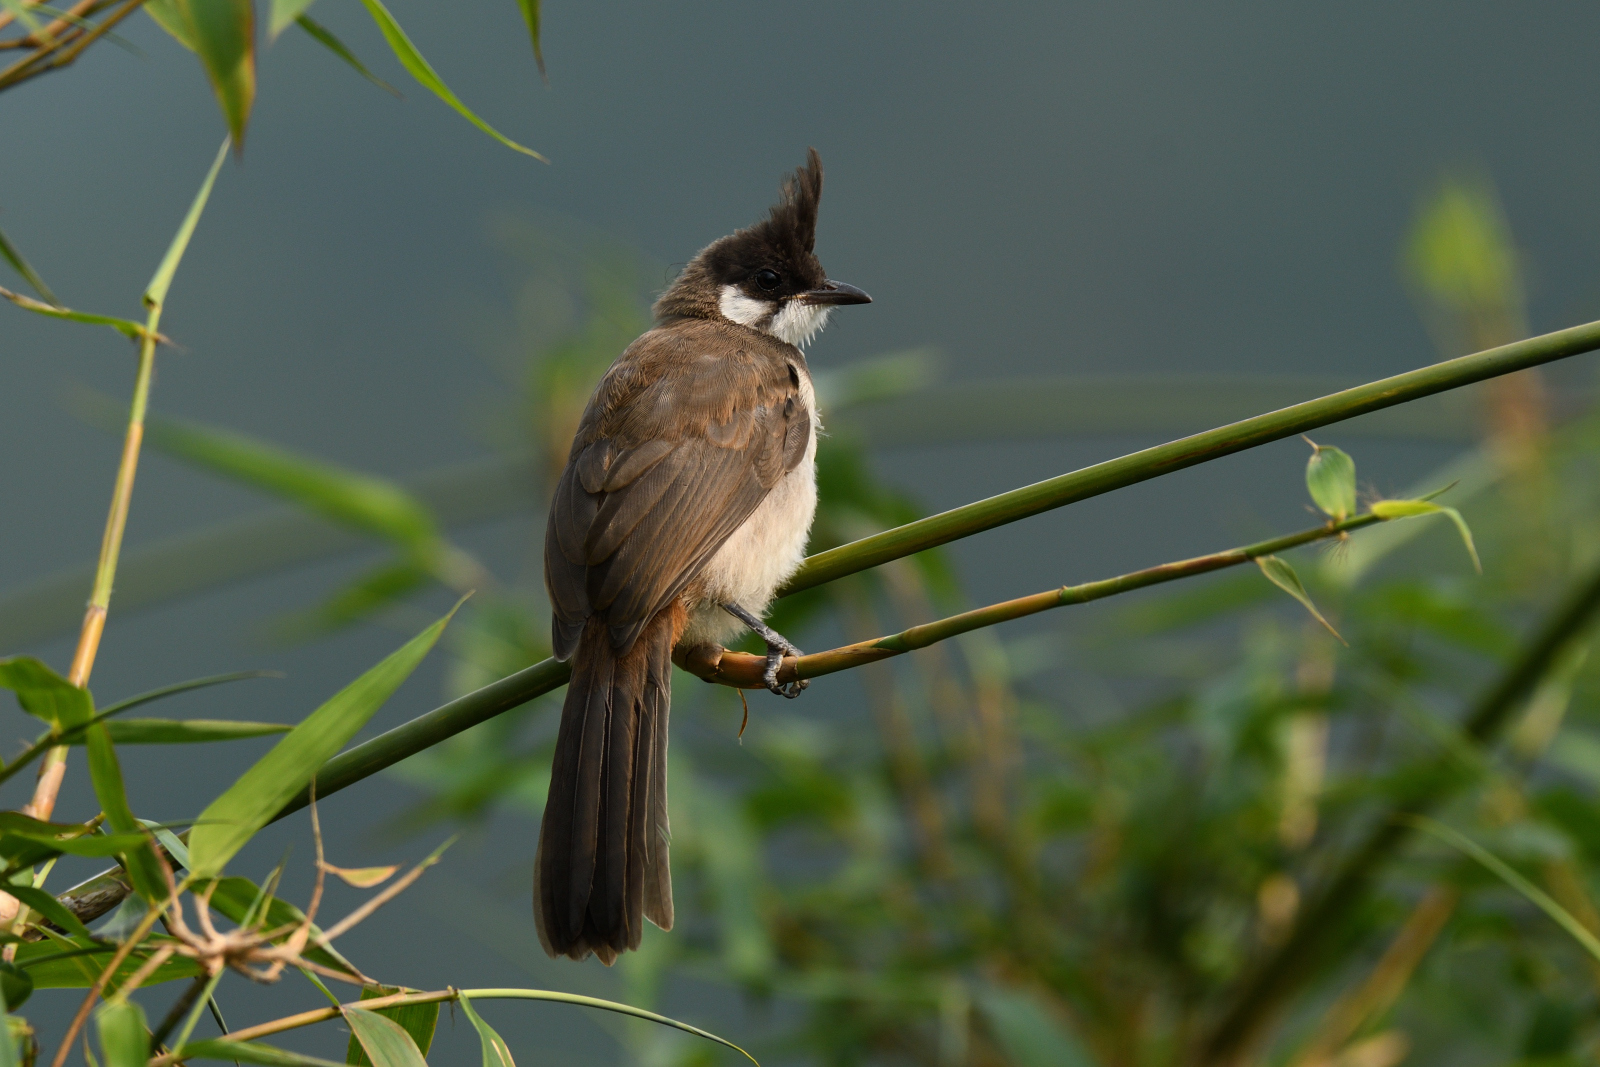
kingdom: Animalia
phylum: Chordata
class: Aves
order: Passeriformes
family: Pycnonotidae
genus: Pycnonotus
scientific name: Pycnonotus jocosus
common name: Red-whiskered bulbul
